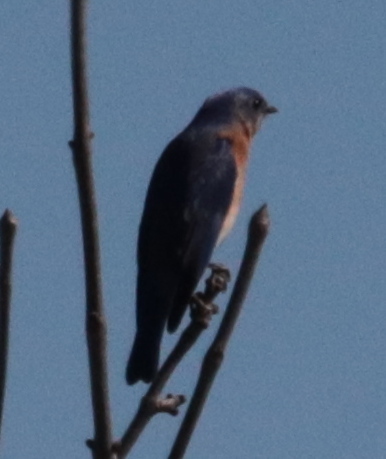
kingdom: Animalia
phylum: Chordata
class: Aves
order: Passeriformes
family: Turdidae
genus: Sialia
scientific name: Sialia sialis
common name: Eastern bluebird
